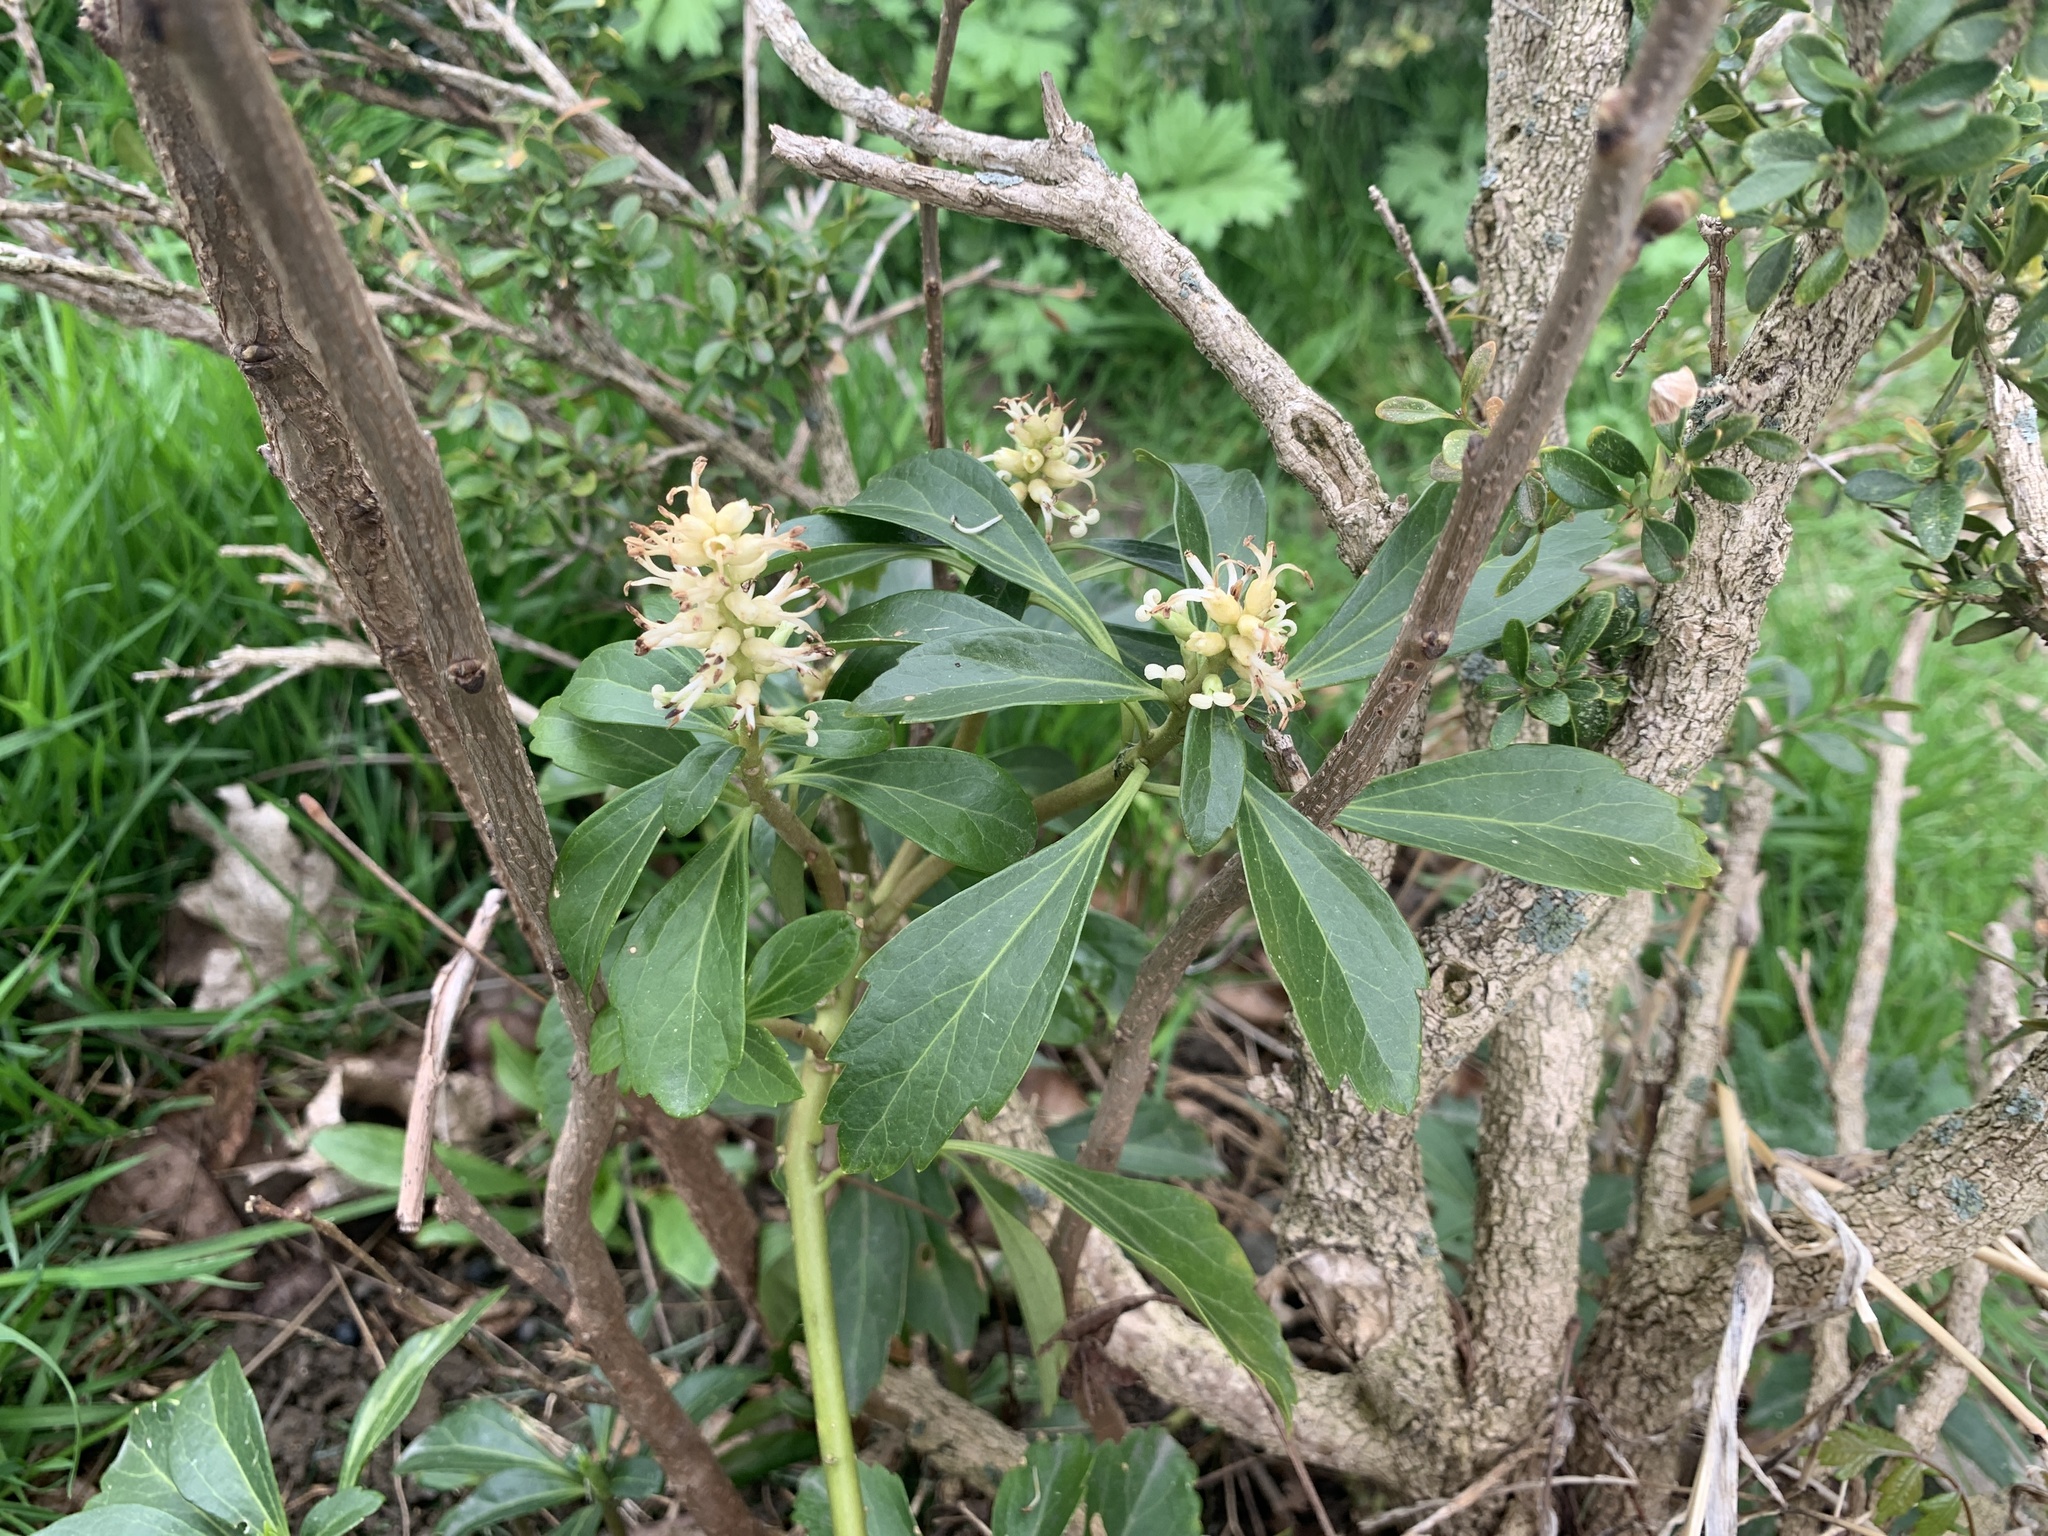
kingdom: Plantae
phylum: Tracheophyta
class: Magnoliopsida
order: Buxales
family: Buxaceae
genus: Pachysandra
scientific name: Pachysandra terminalis
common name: Japanese pachysandra
